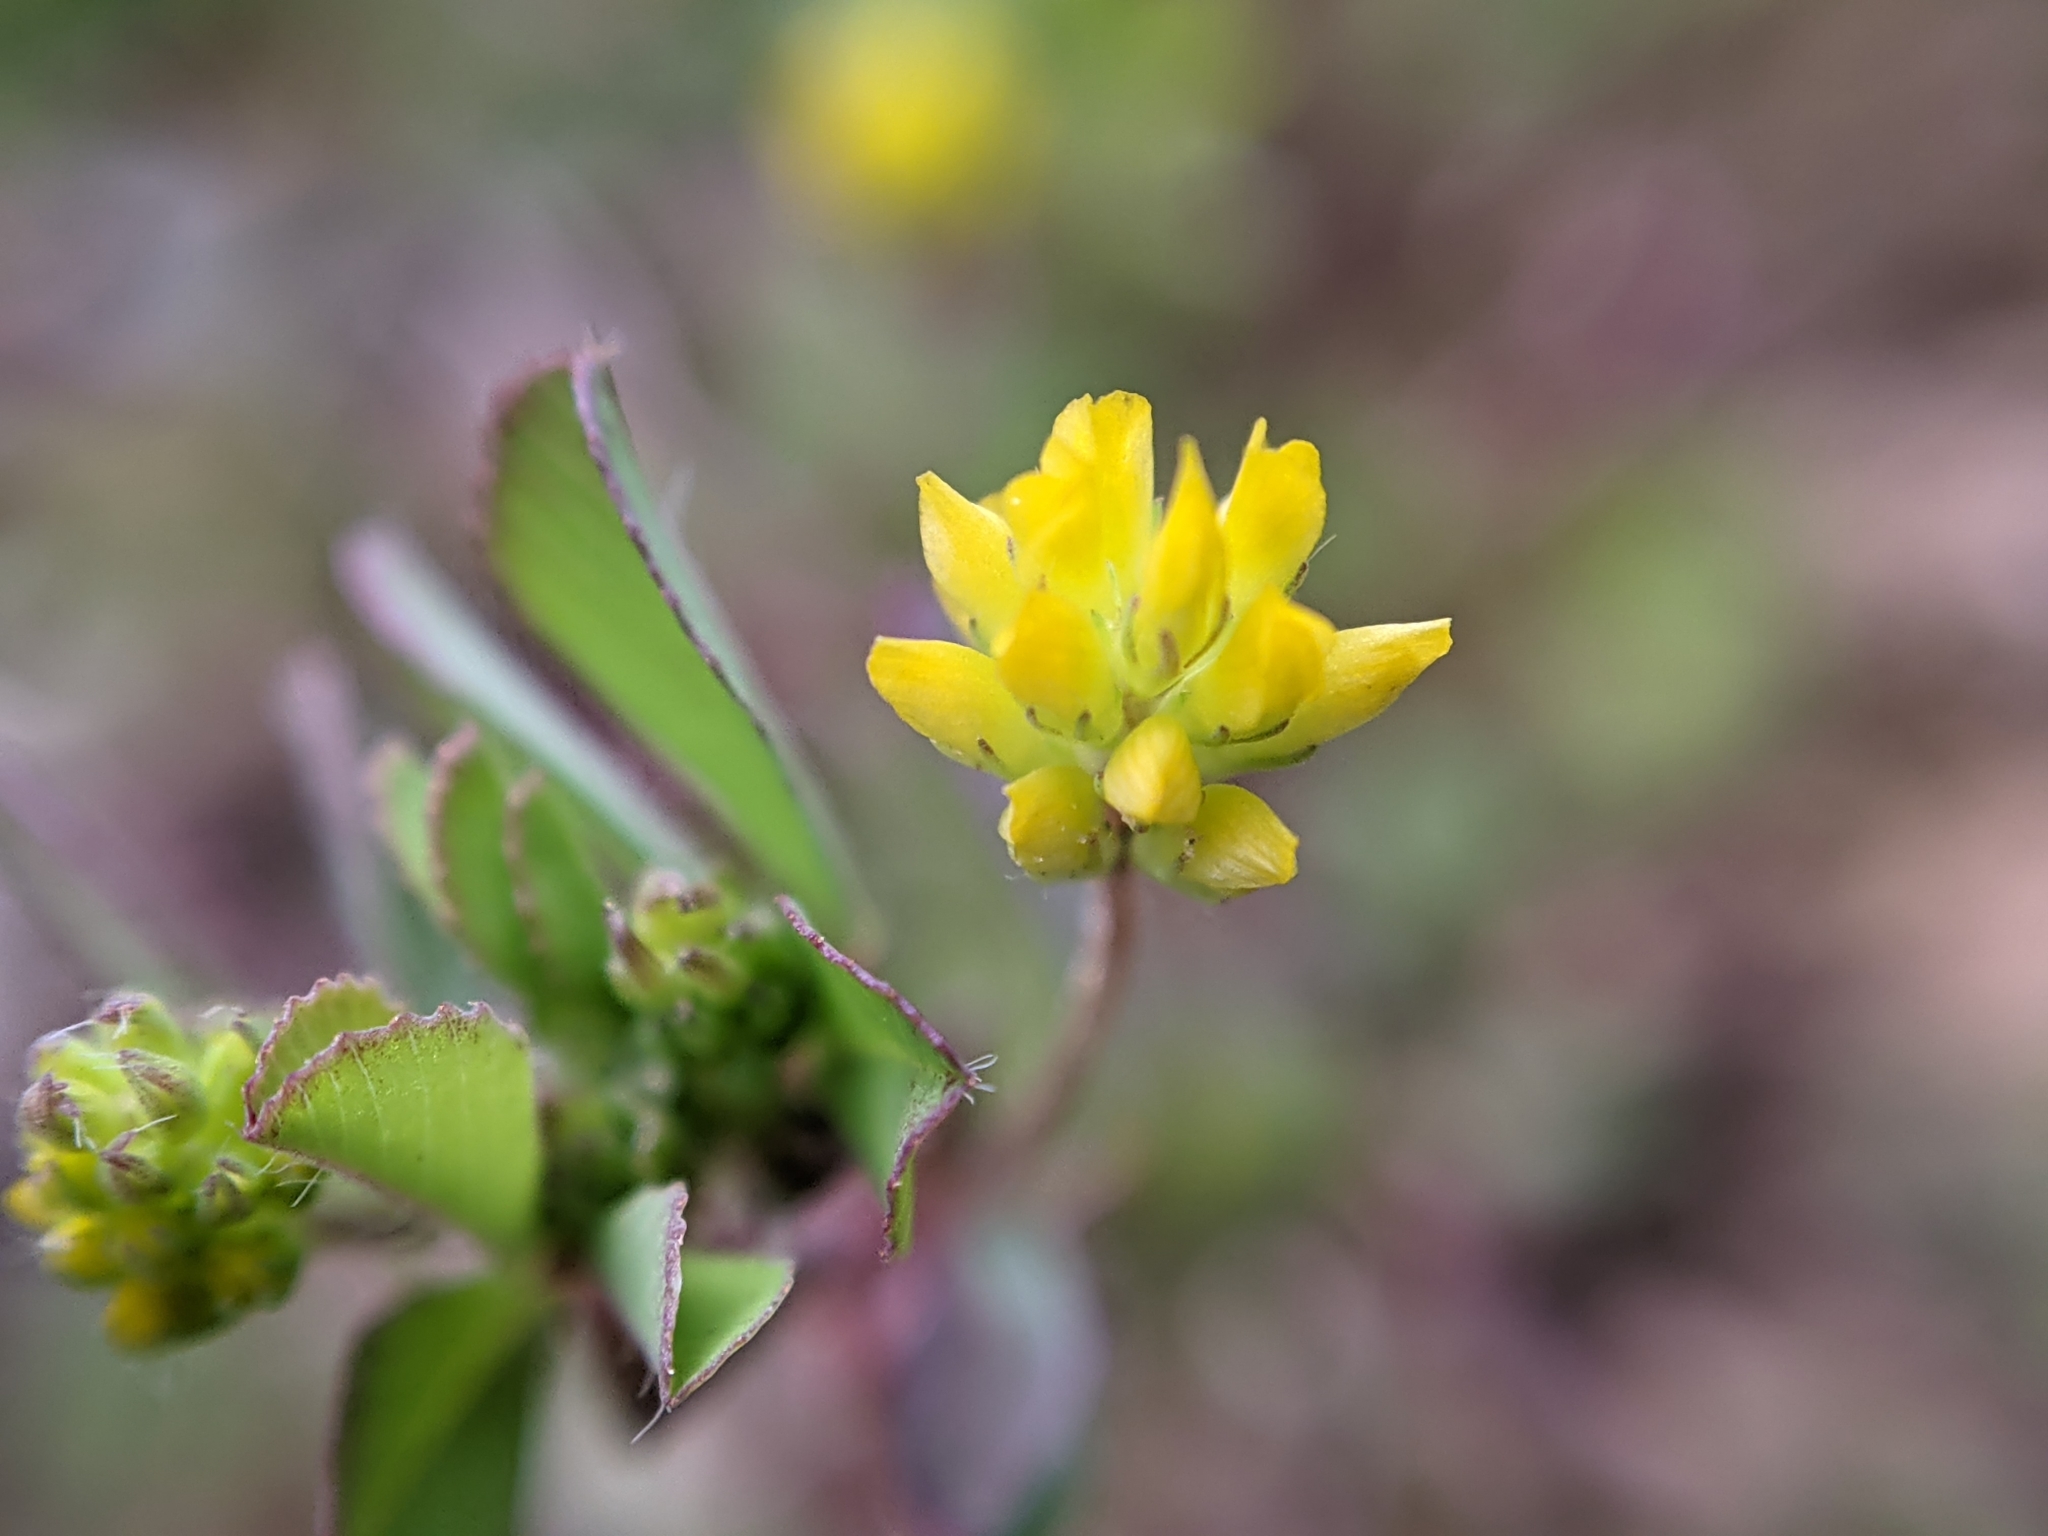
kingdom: Plantae
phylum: Tracheophyta
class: Magnoliopsida
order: Fabales
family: Fabaceae
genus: Trifolium
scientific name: Trifolium dubium
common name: Suckling clover
